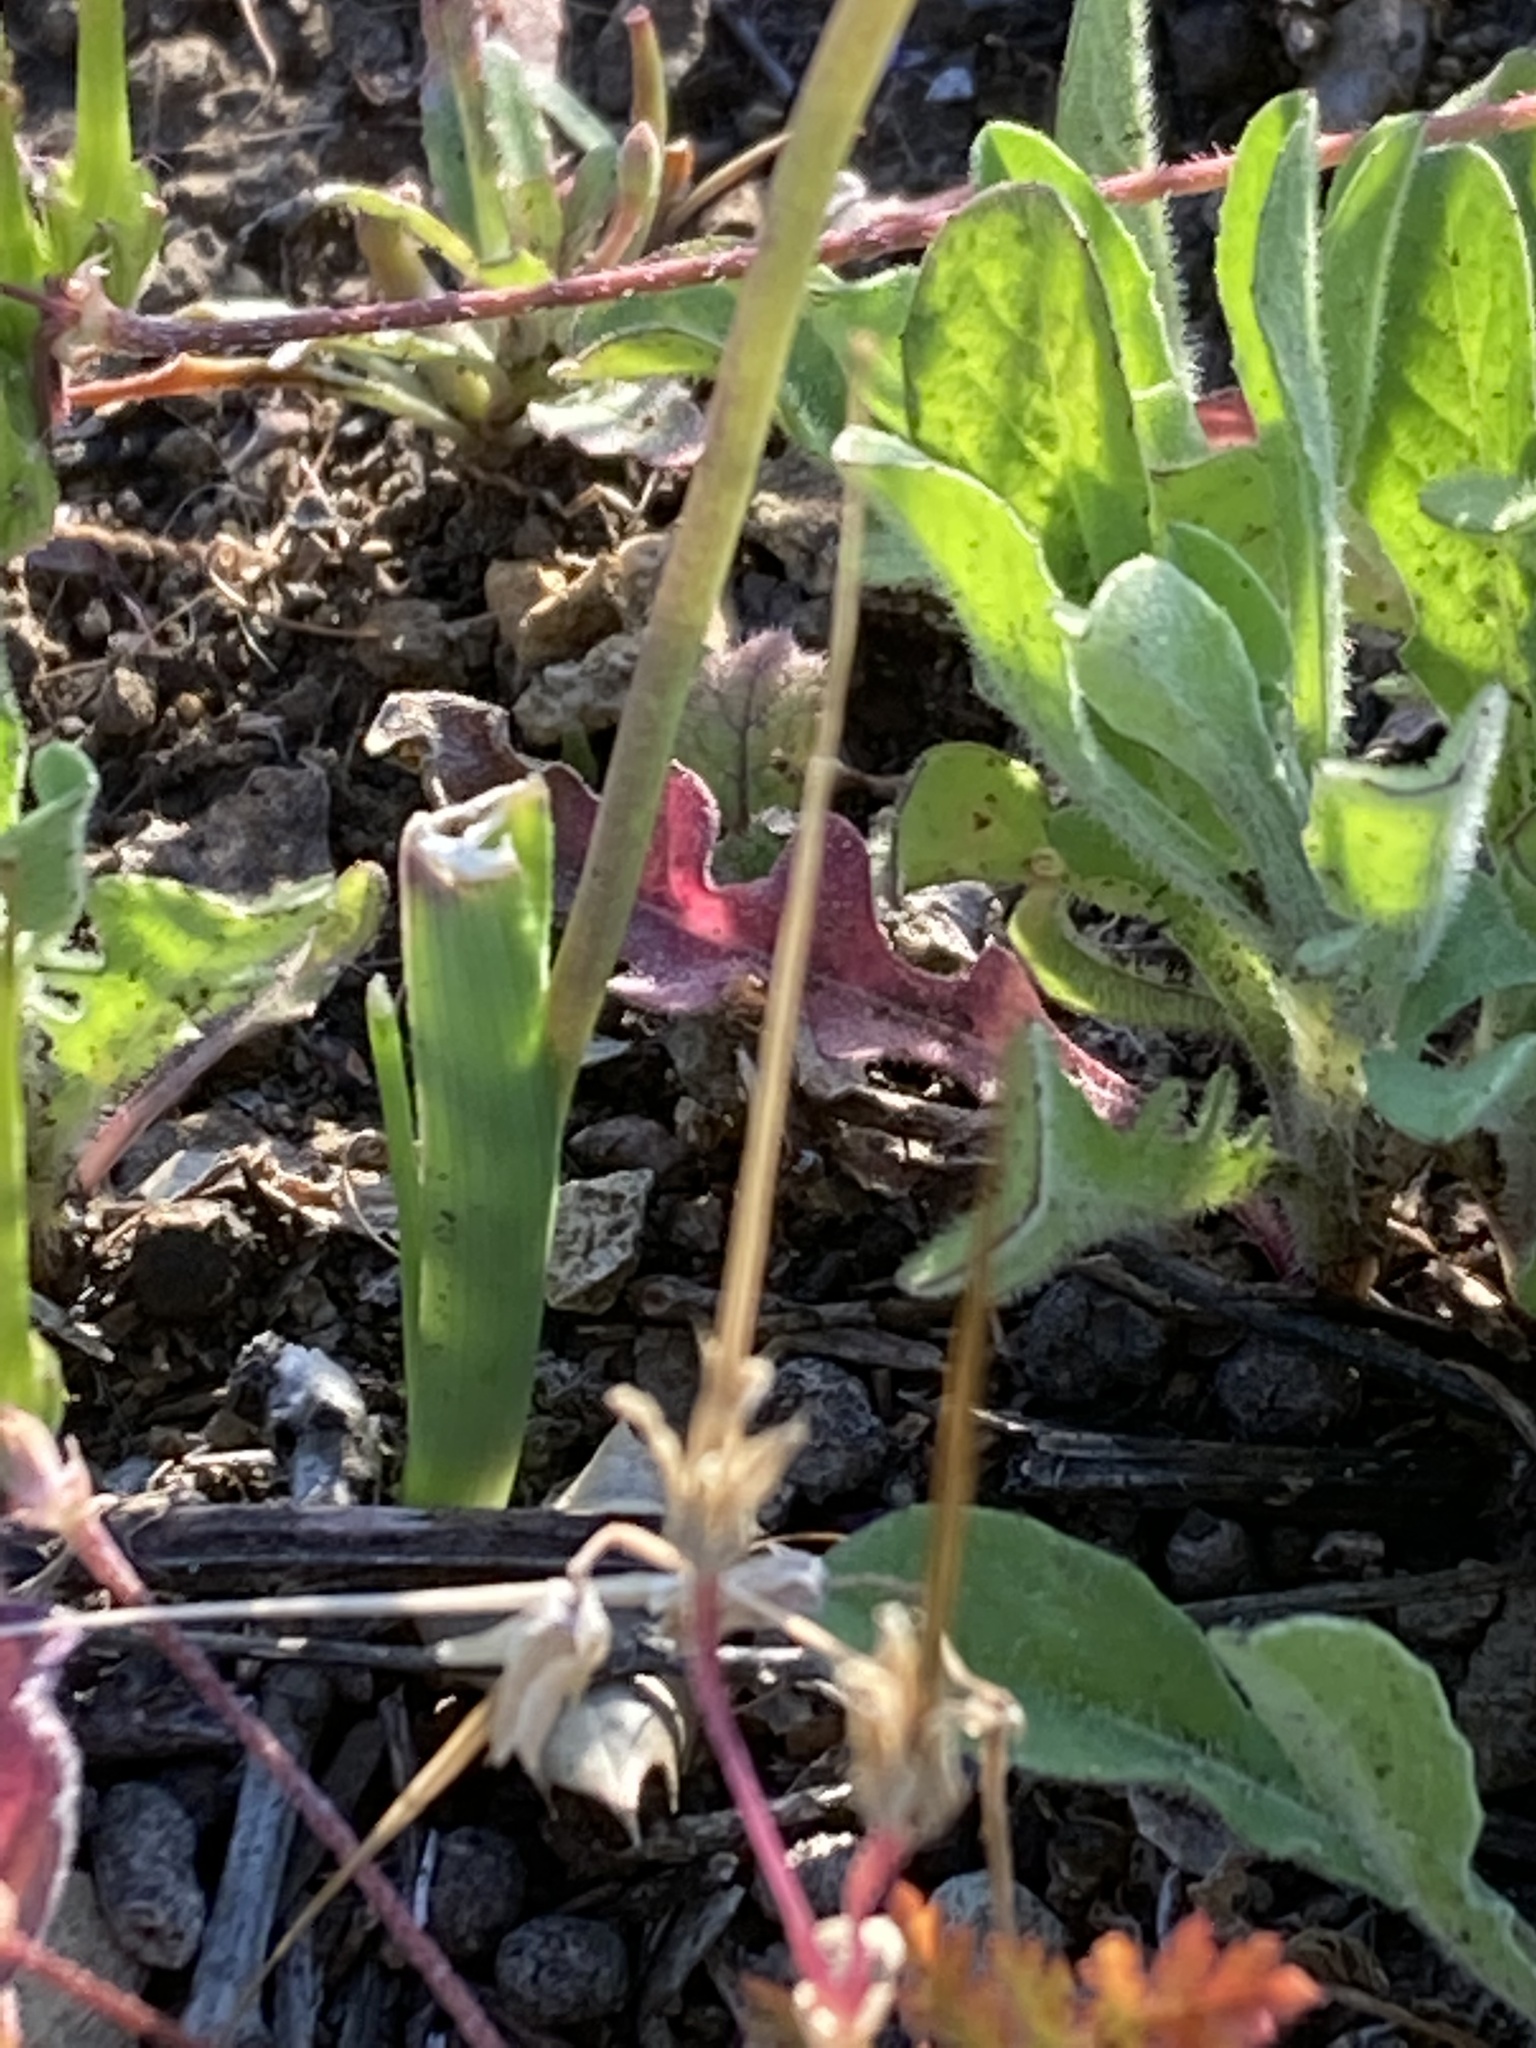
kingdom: Plantae
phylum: Tracheophyta
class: Liliopsida
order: Asparagales
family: Asparagaceae
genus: Dipterostemon
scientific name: Dipterostemon capitatus
